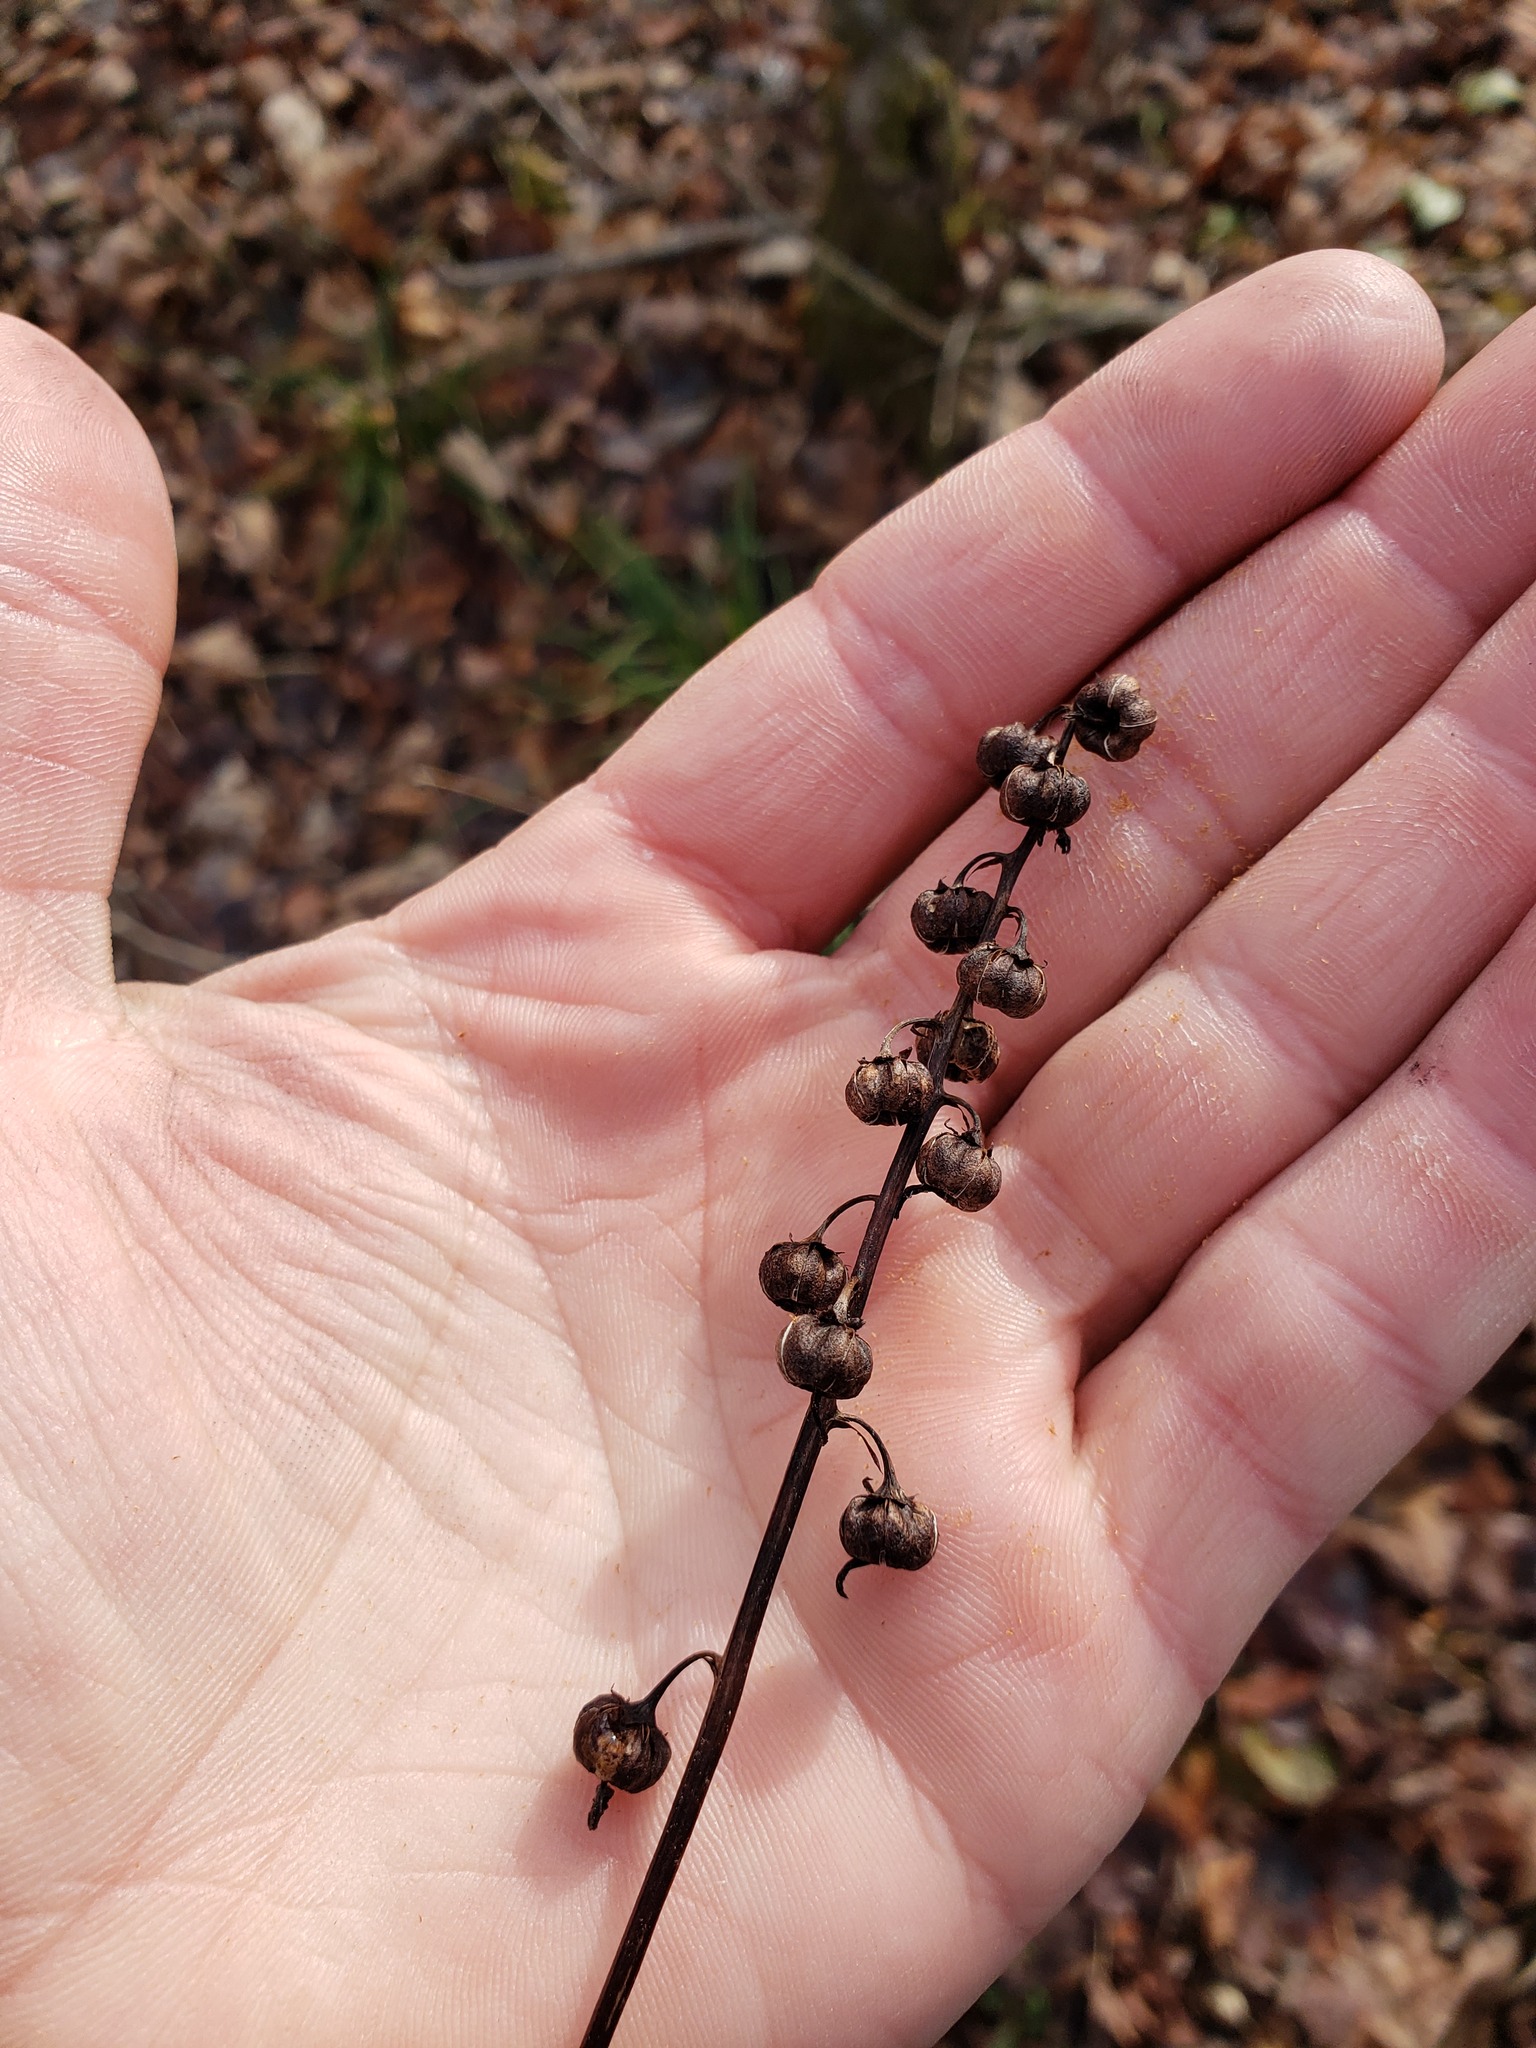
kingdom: Plantae
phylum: Tracheophyta
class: Magnoliopsida
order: Ericales
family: Ericaceae
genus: Pyrola
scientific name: Pyrola elliptica
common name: Shinleaf
